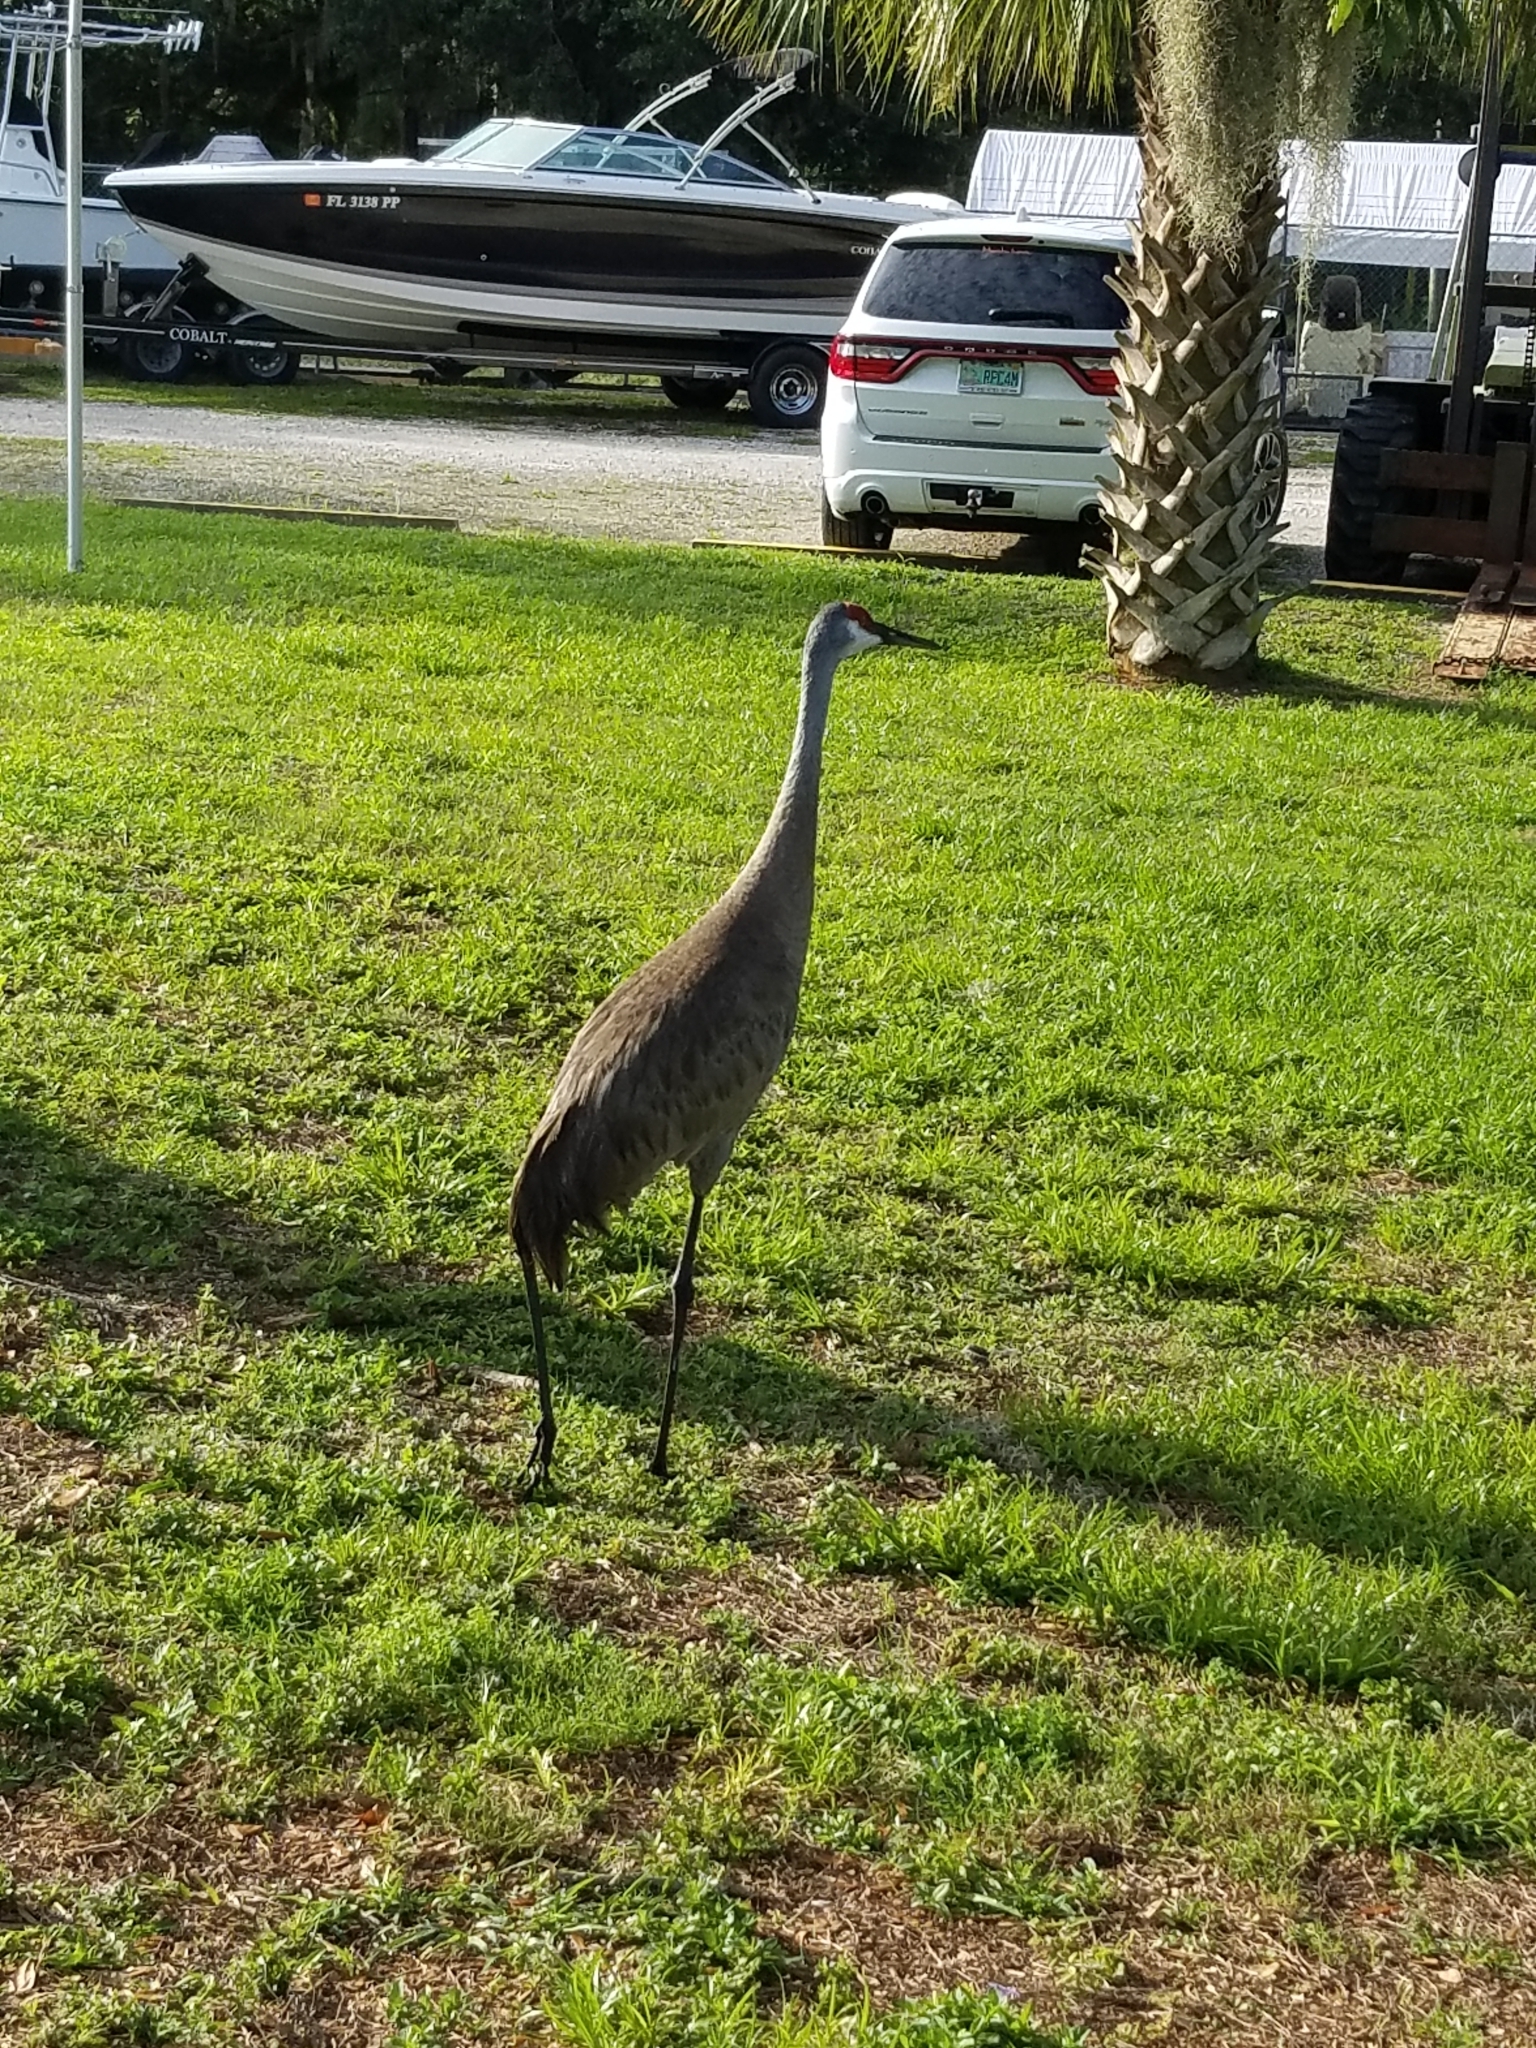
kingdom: Animalia
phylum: Chordata
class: Aves
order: Gruiformes
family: Gruidae
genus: Grus
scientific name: Grus canadensis
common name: Sandhill crane
